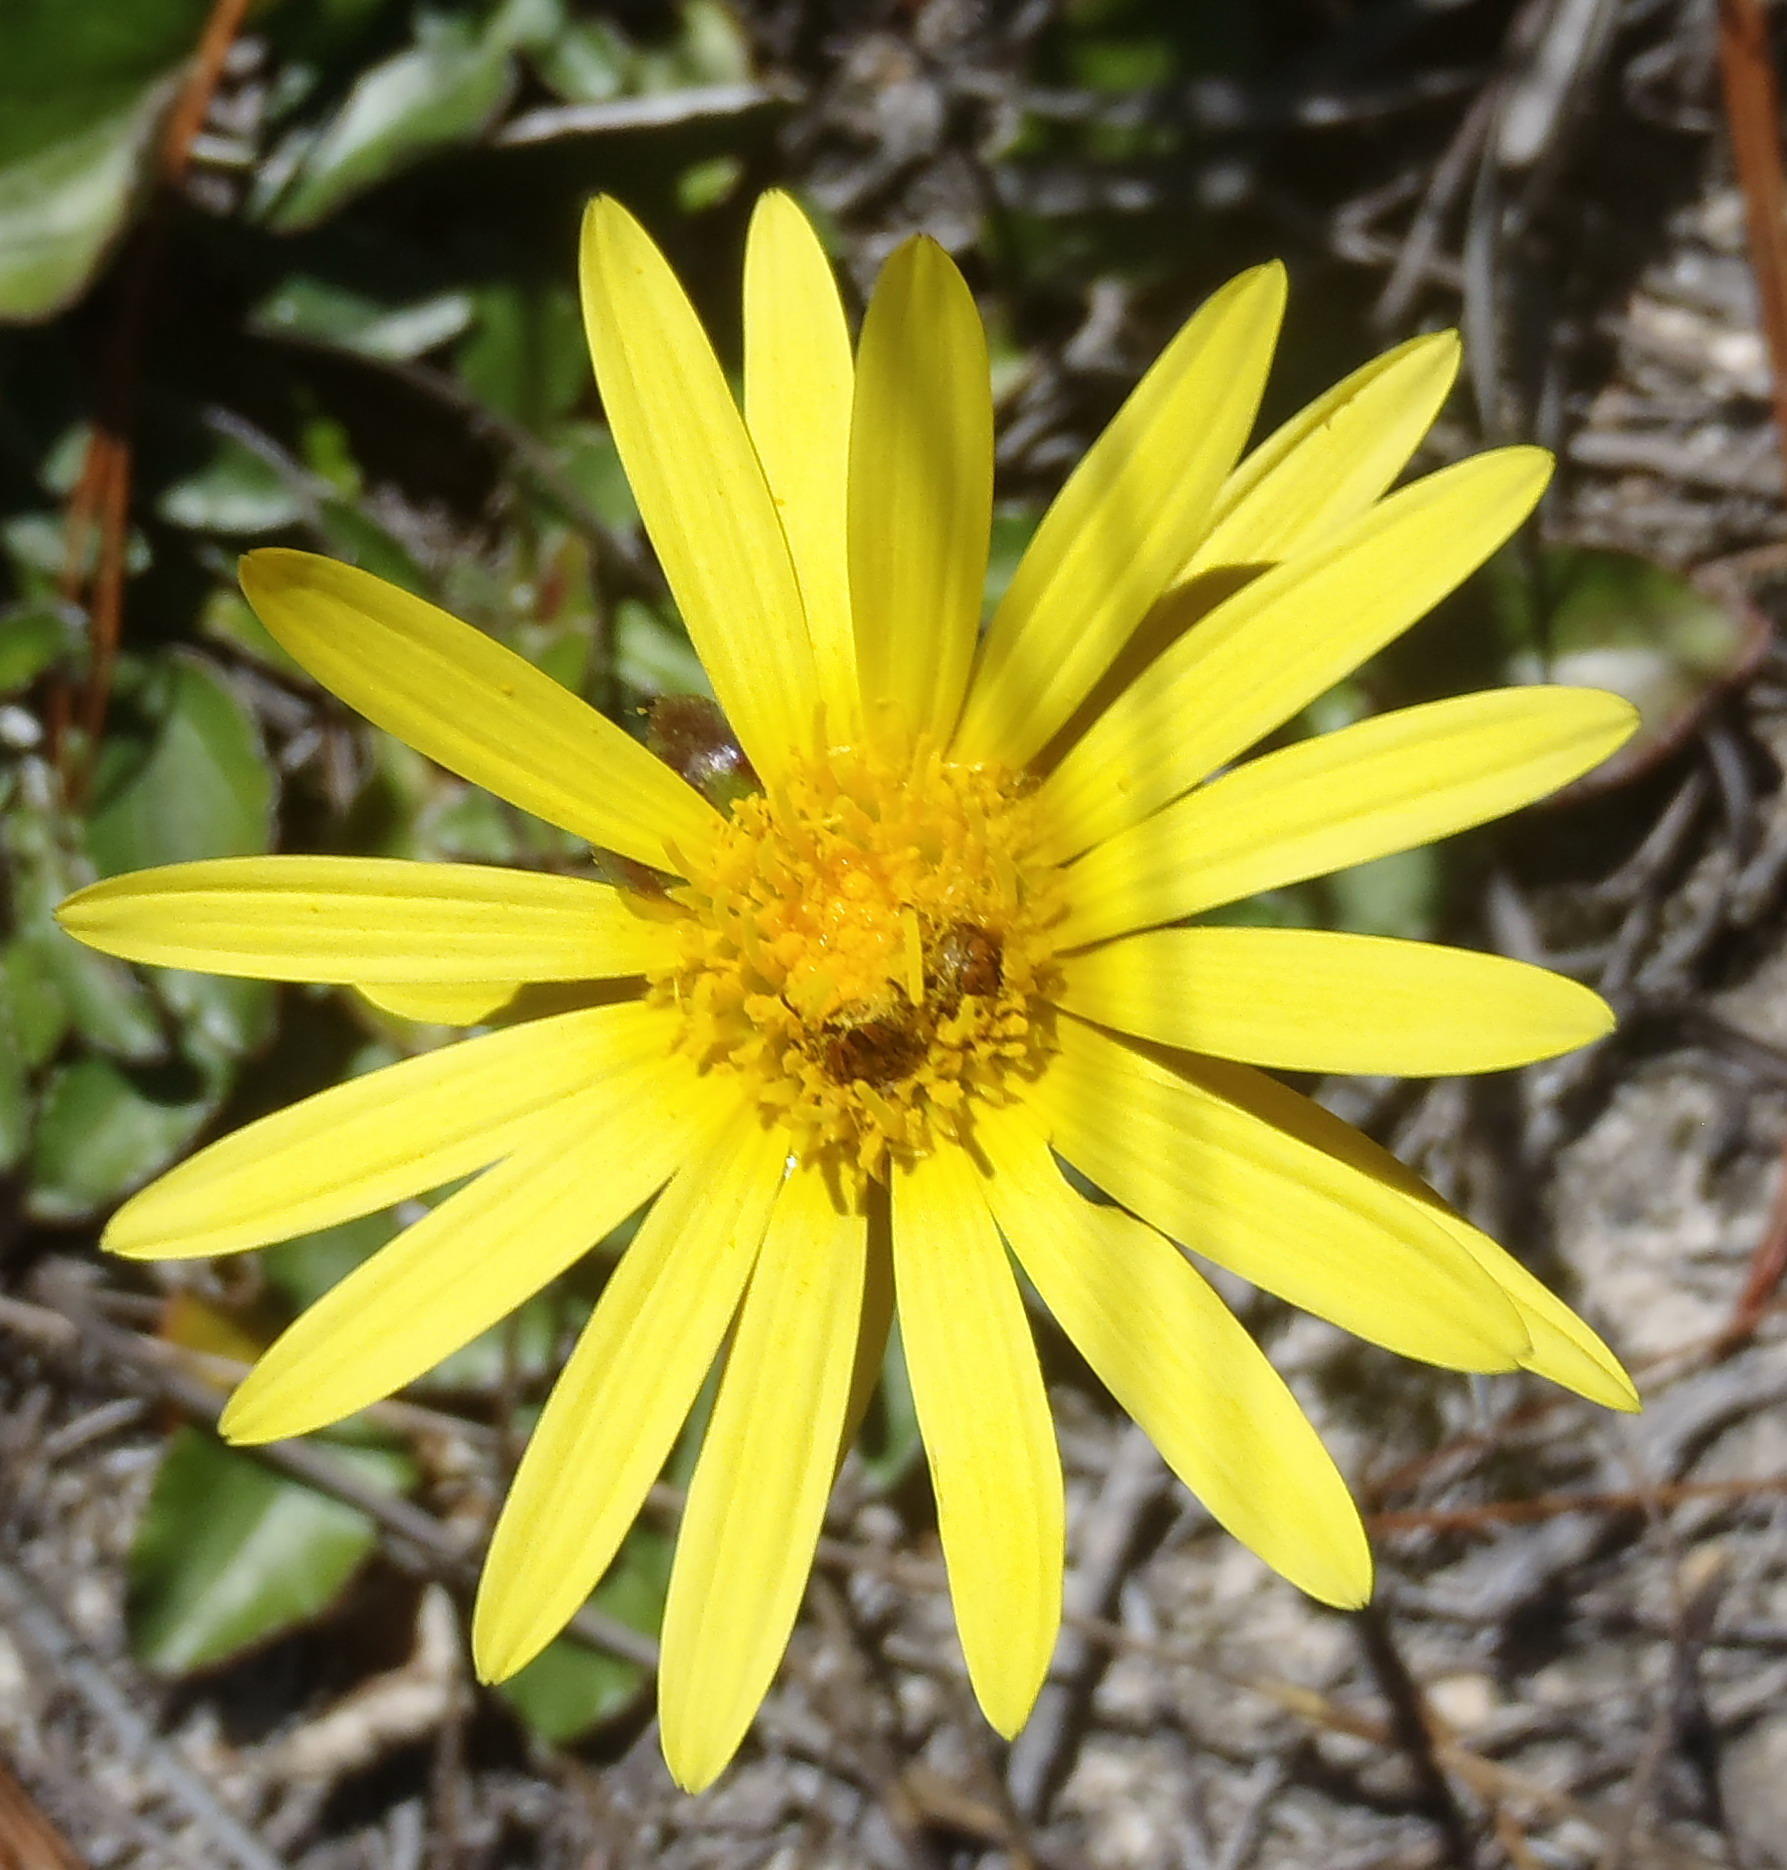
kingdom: Plantae
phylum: Tracheophyta
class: Magnoliopsida
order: Asterales
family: Asteraceae
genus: Haplocarpha
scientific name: Haplocarpha lyrata
